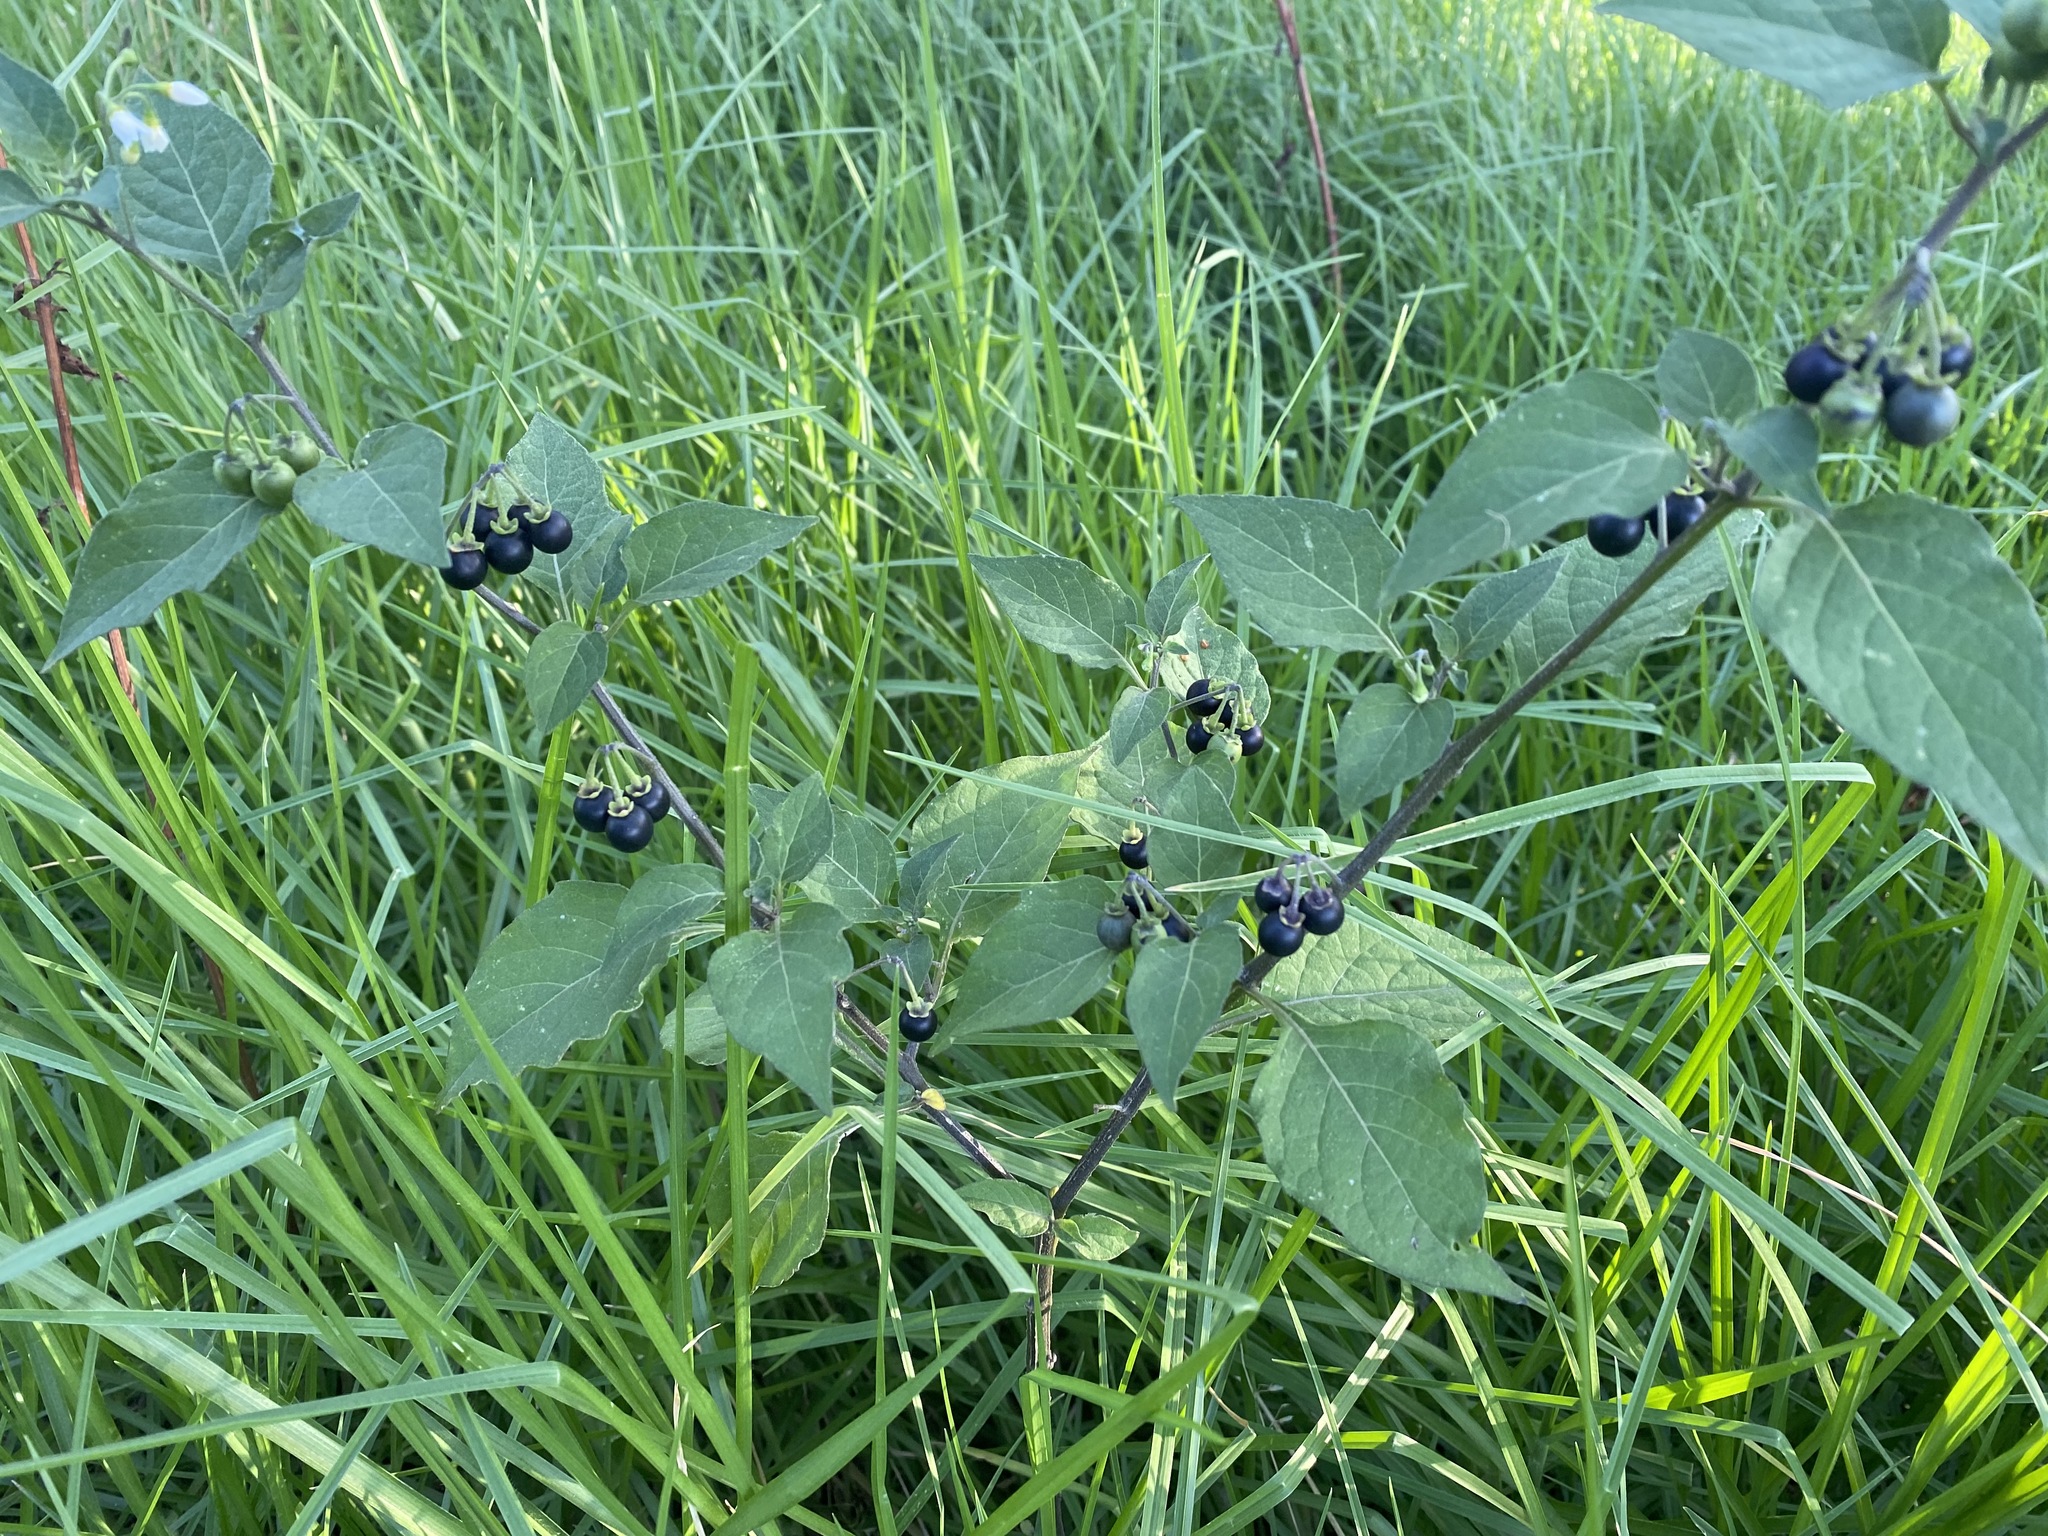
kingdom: Plantae
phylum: Tracheophyta
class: Magnoliopsida
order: Solanales
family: Solanaceae
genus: Solanum
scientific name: Solanum nigrum
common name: Black nightshade
